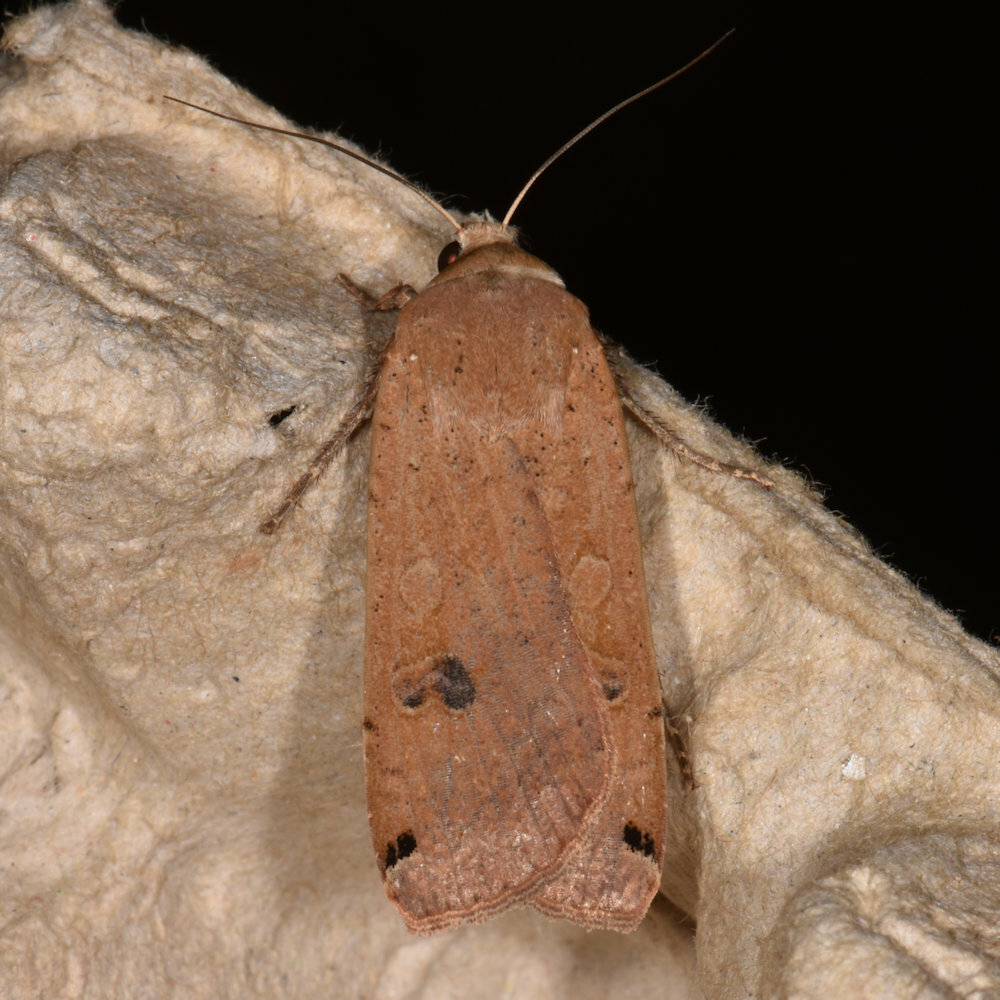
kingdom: Animalia
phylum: Arthropoda
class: Insecta
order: Lepidoptera
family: Noctuidae
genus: Noctua
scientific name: Noctua pronuba
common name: Large yellow underwing
